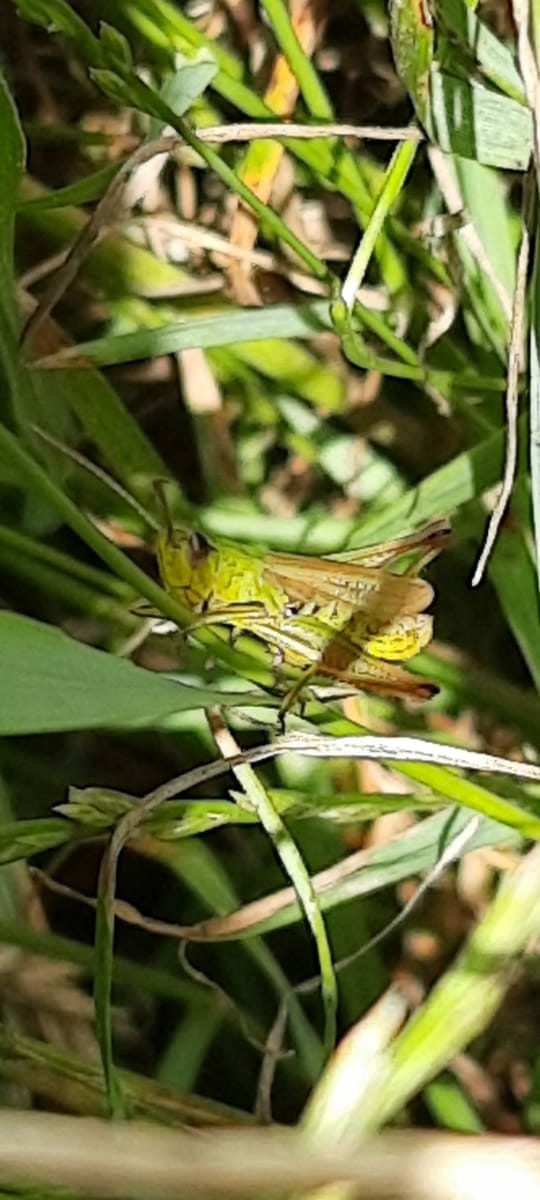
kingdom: Animalia
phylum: Arthropoda
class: Insecta
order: Orthoptera
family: Acrididae
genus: Pseudochorthippus
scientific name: Pseudochorthippus parallelus
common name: Meadow grasshopper
